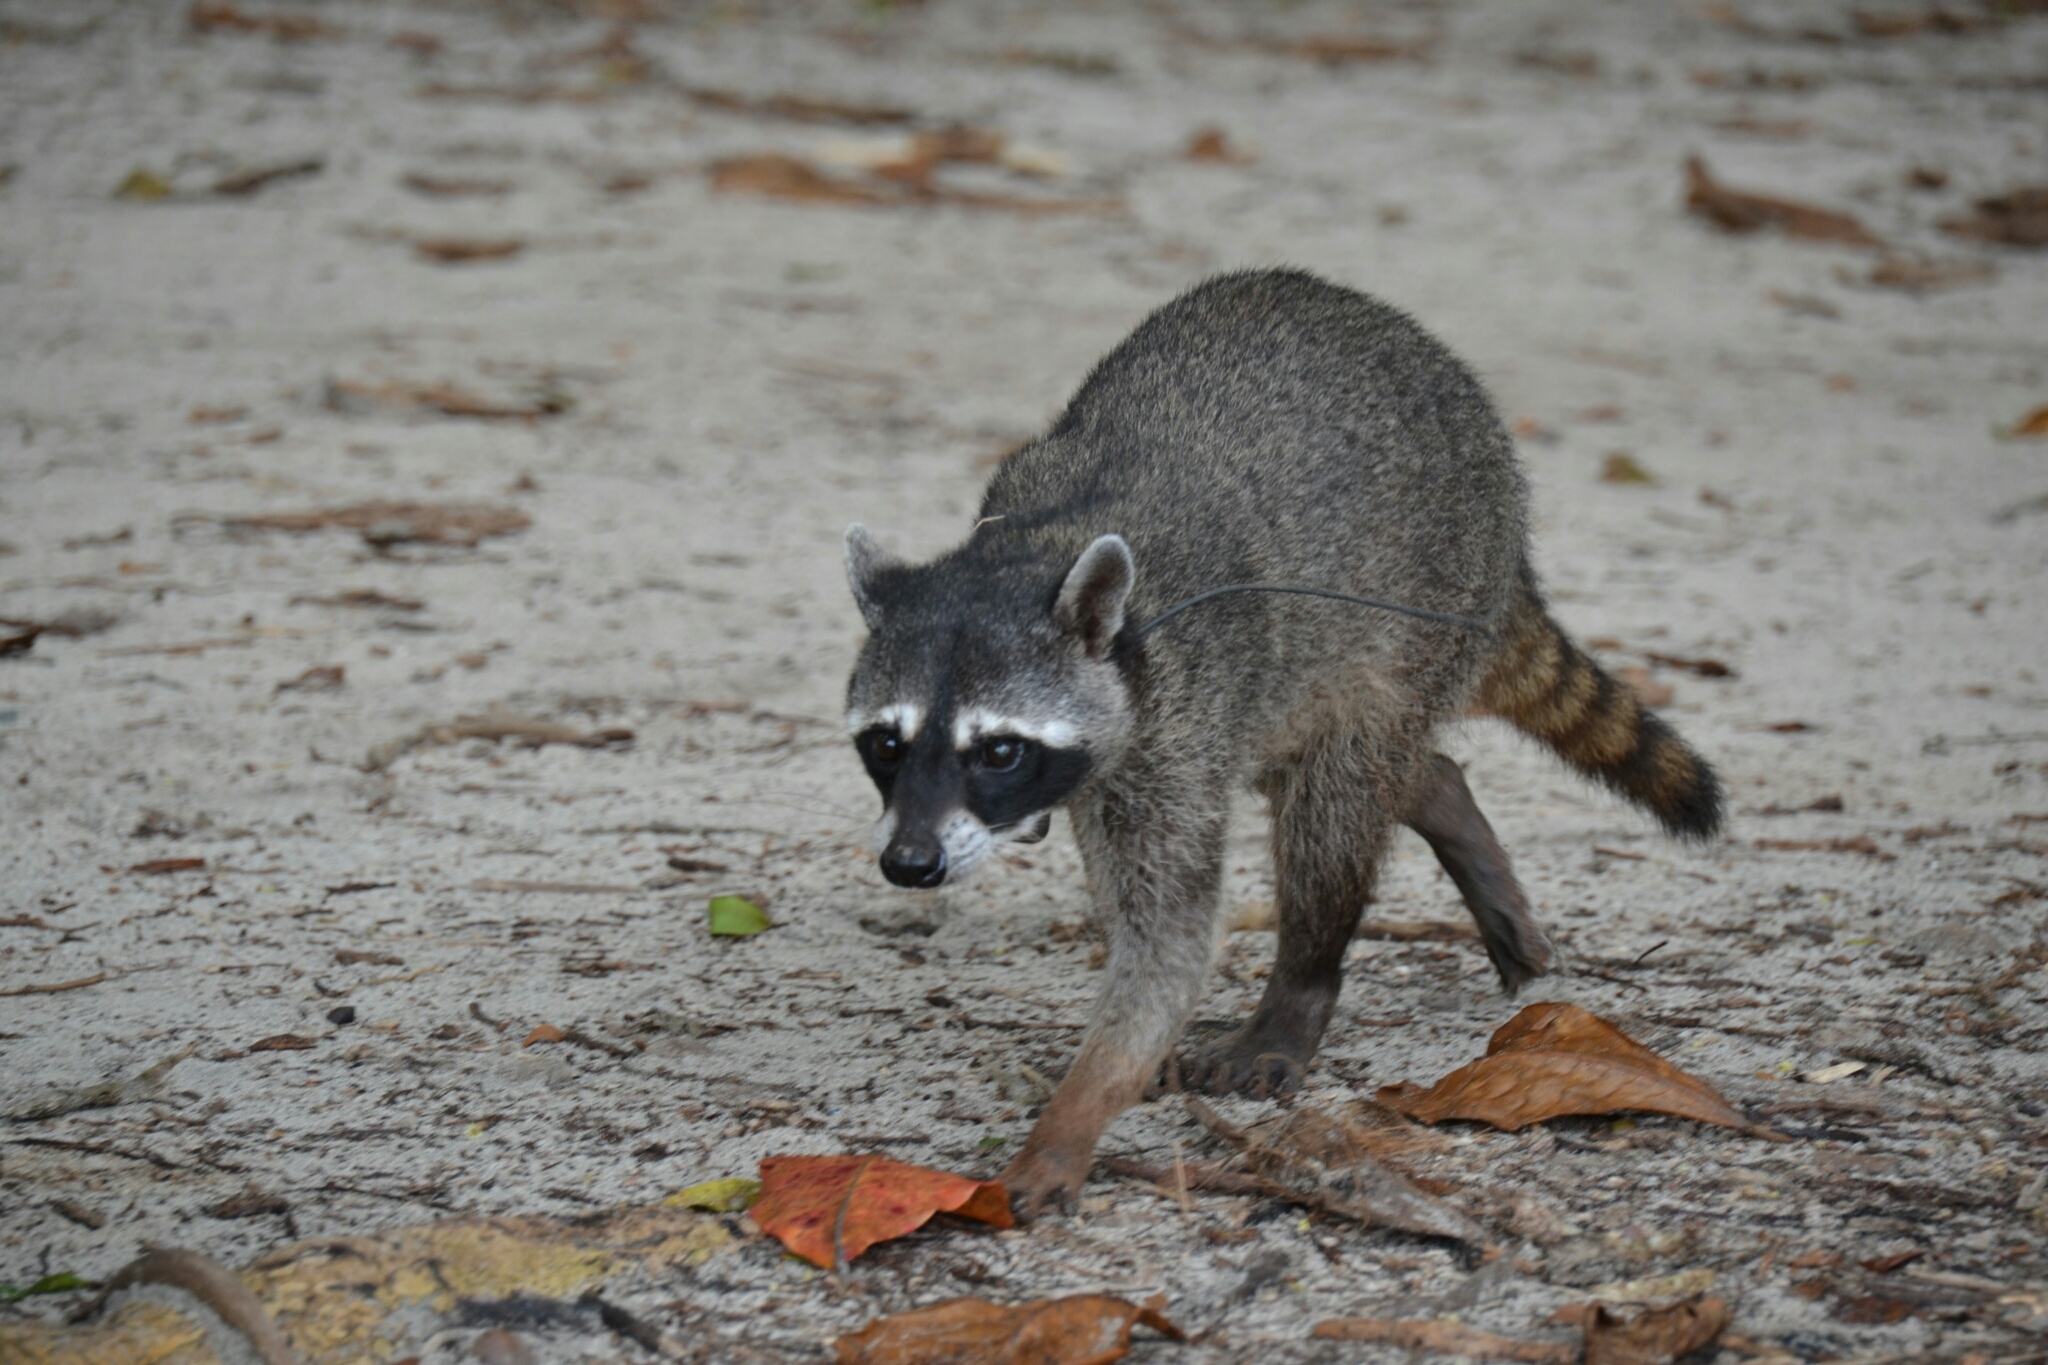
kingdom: Animalia
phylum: Chordata
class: Mammalia
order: Carnivora
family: Procyonidae
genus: Procyon
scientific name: Procyon lotor
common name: Raccoon
